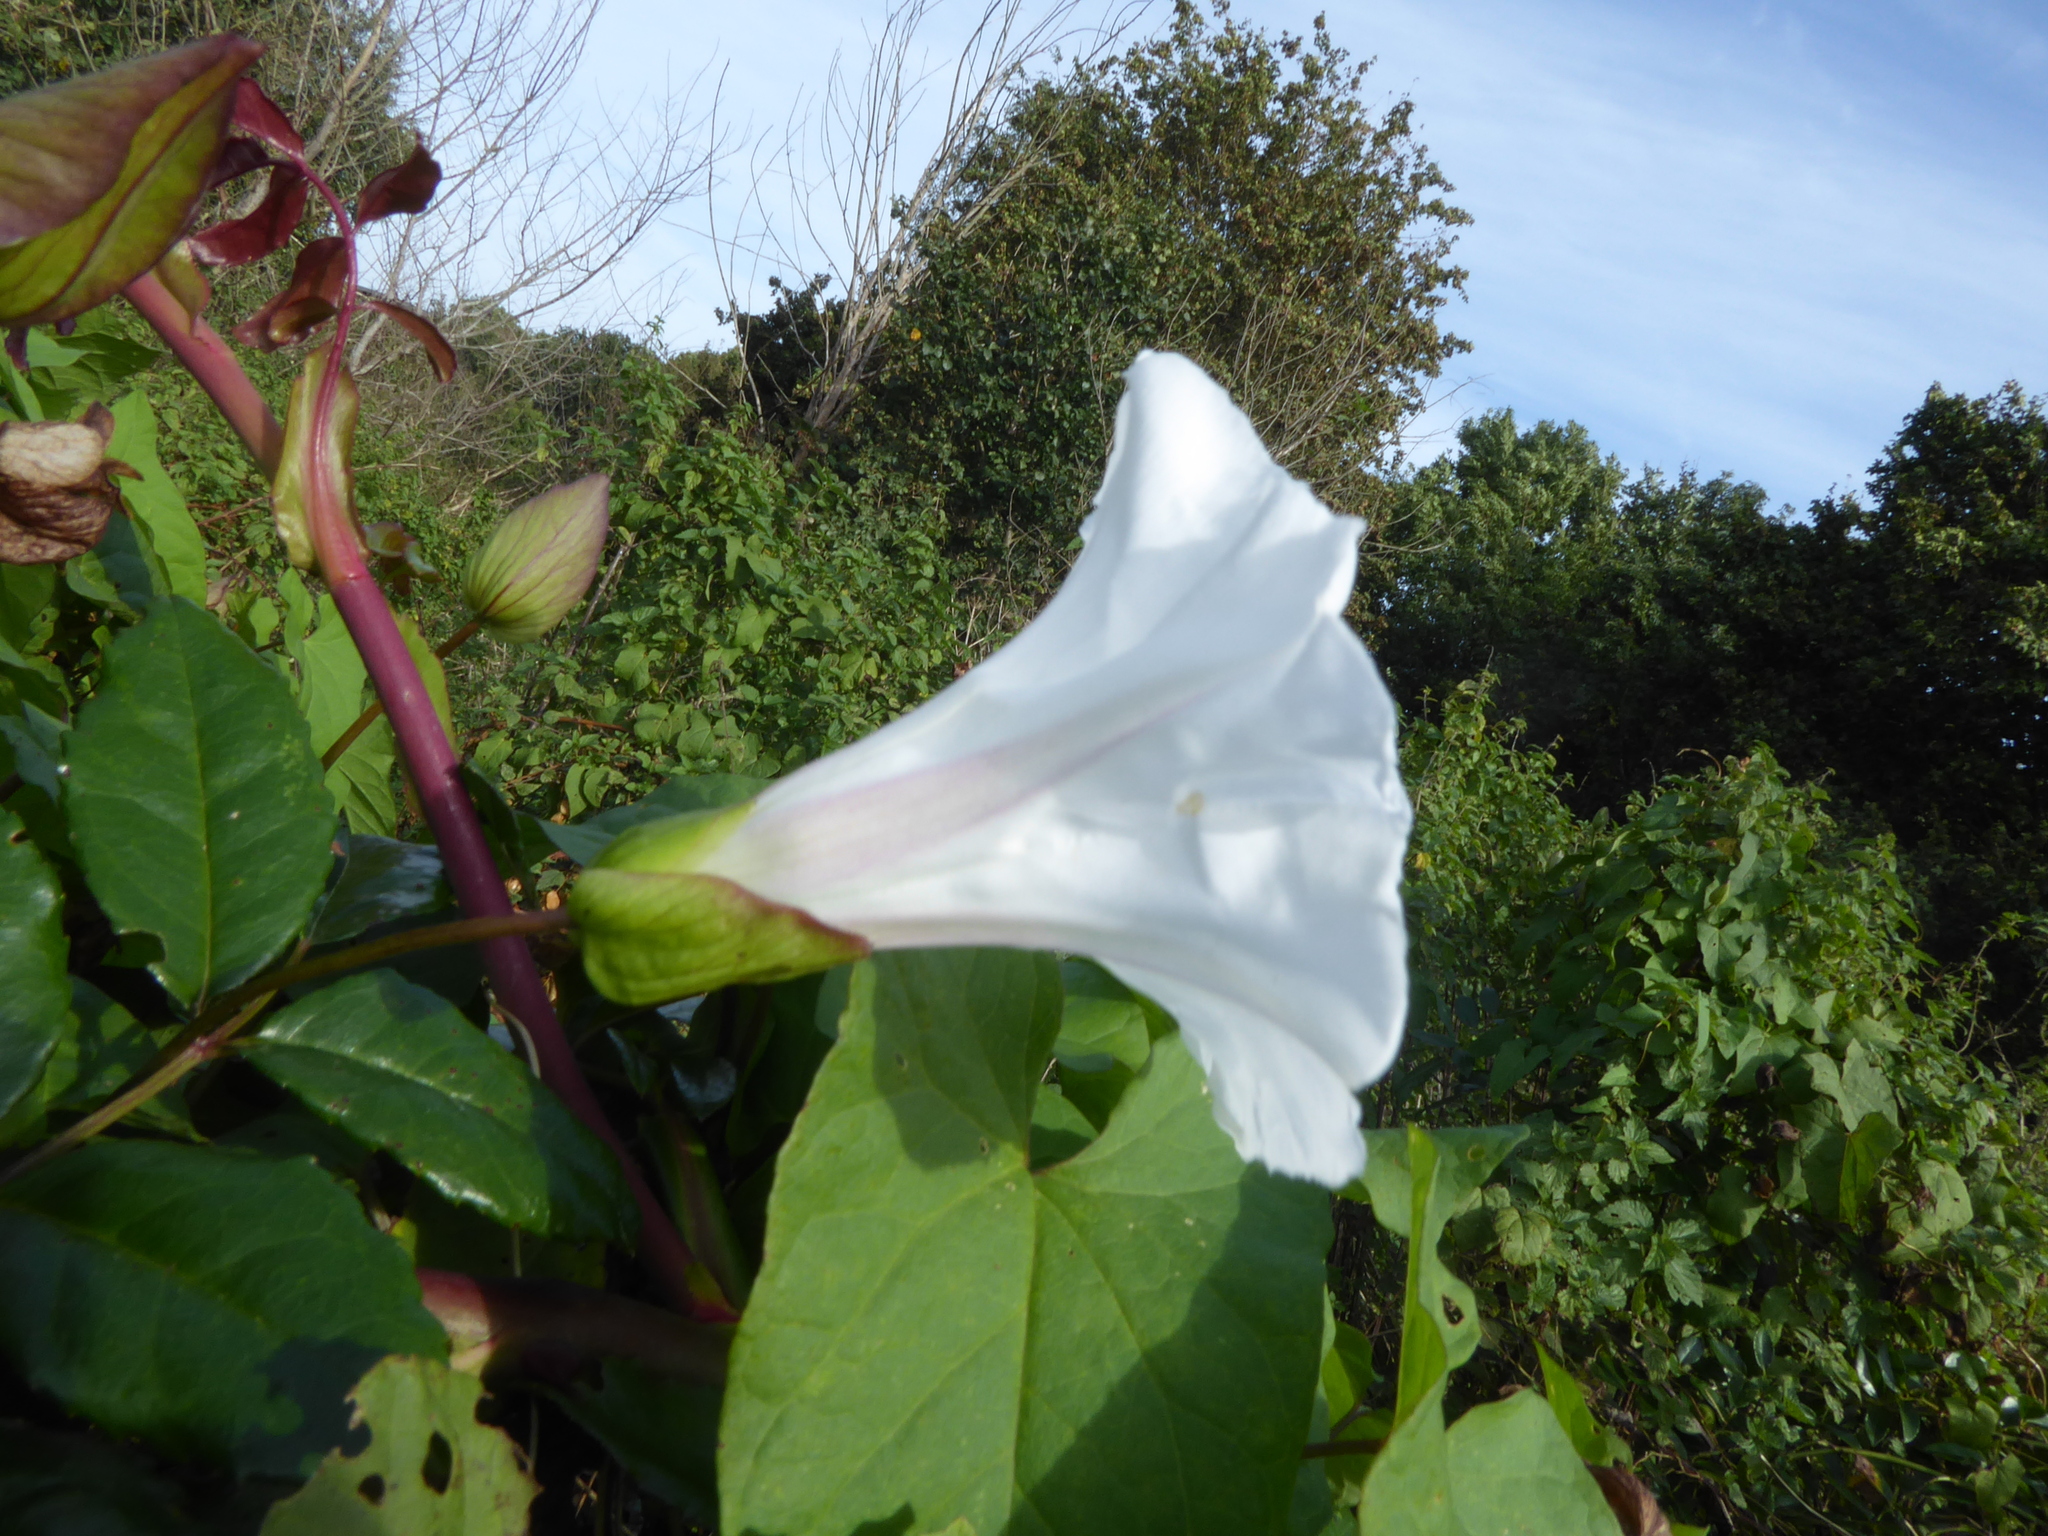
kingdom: Plantae
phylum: Tracheophyta
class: Magnoliopsida
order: Solanales
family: Convolvulaceae
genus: Calystegia
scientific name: Calystegia silvatica
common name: Large bindweed
